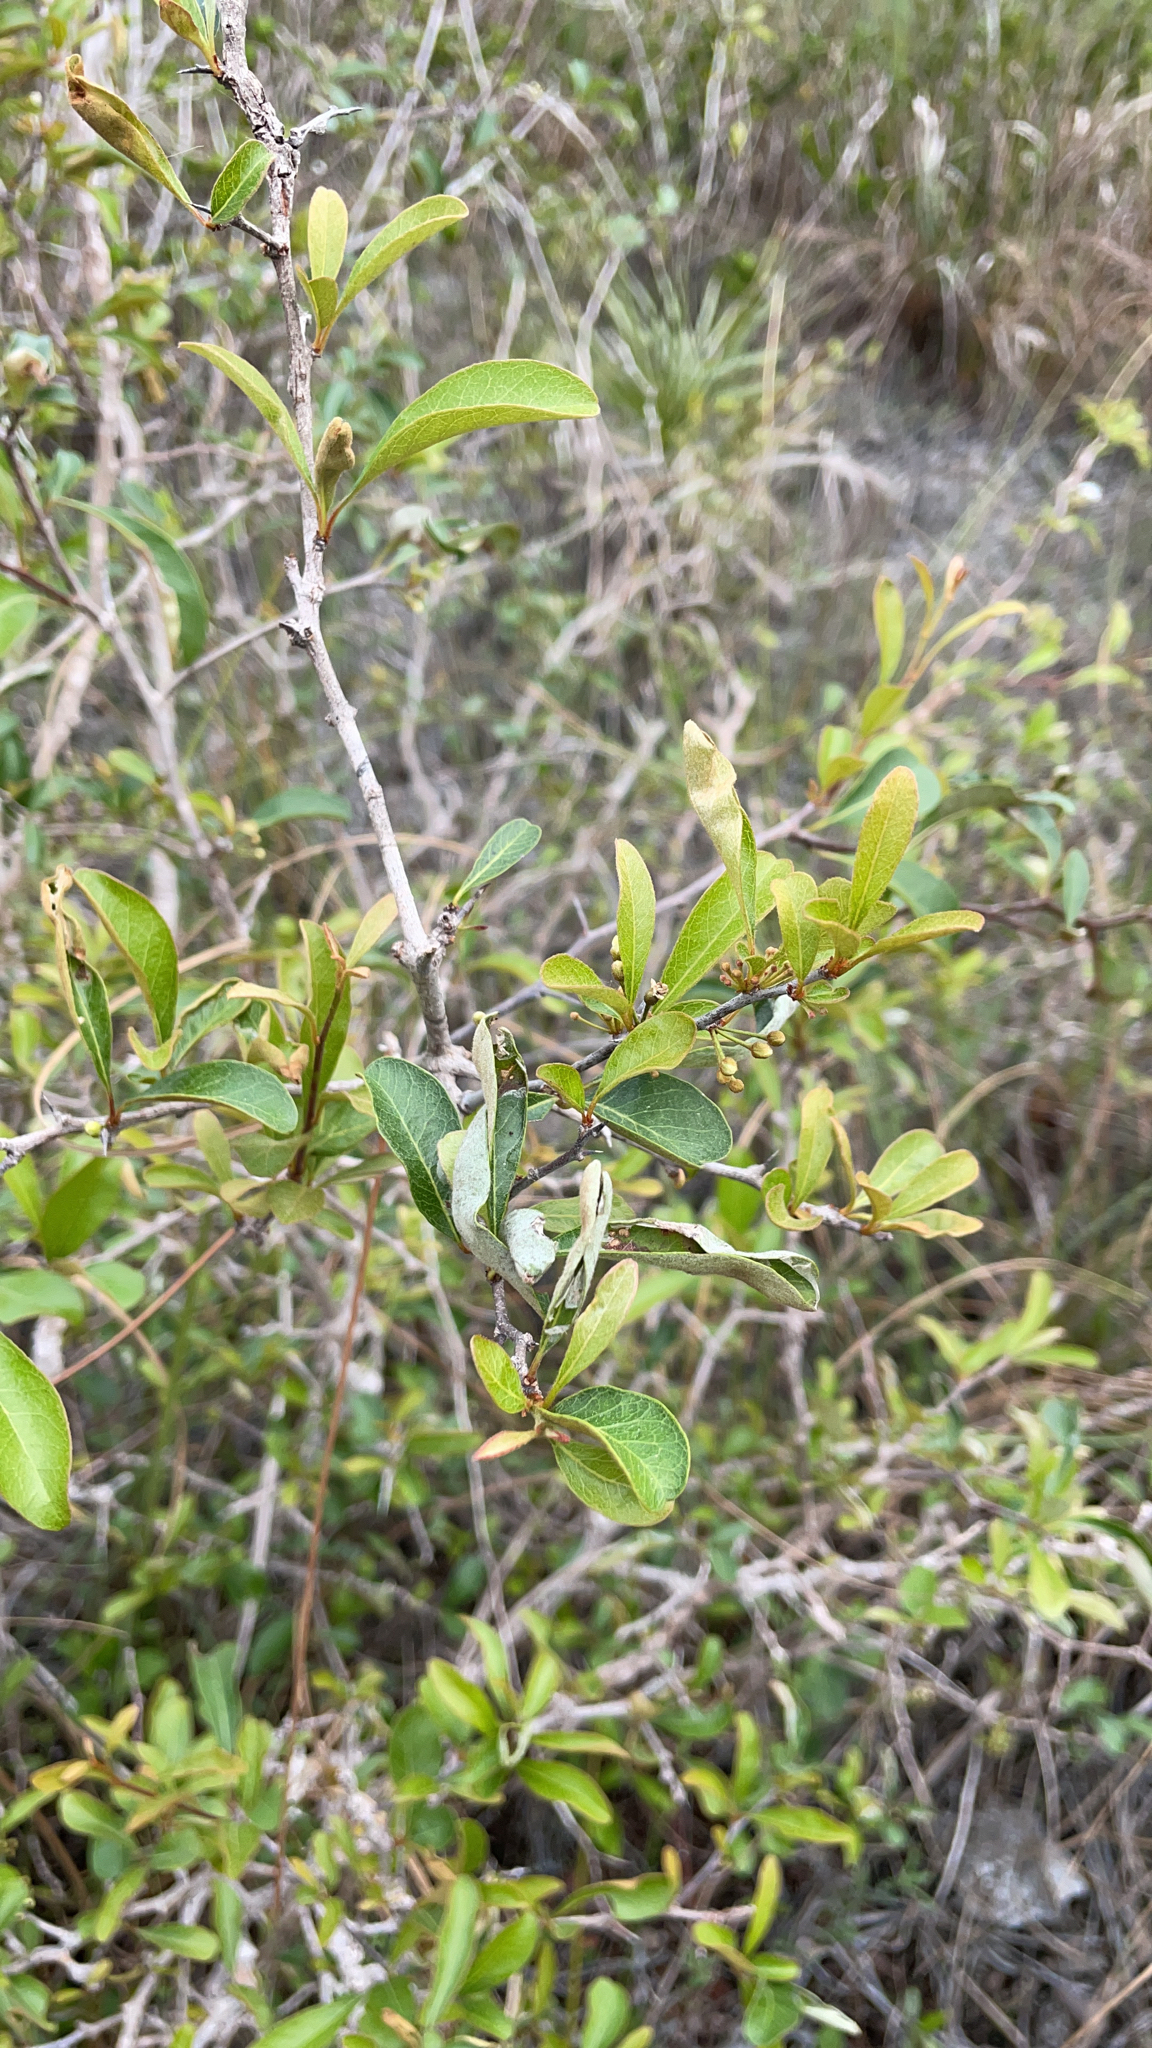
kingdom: Plantae
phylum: Tracheophyta
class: Magnoliopsida
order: Ericales
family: Sapotaceae
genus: Sideroxylon
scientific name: Sideroxylon reclinatum
